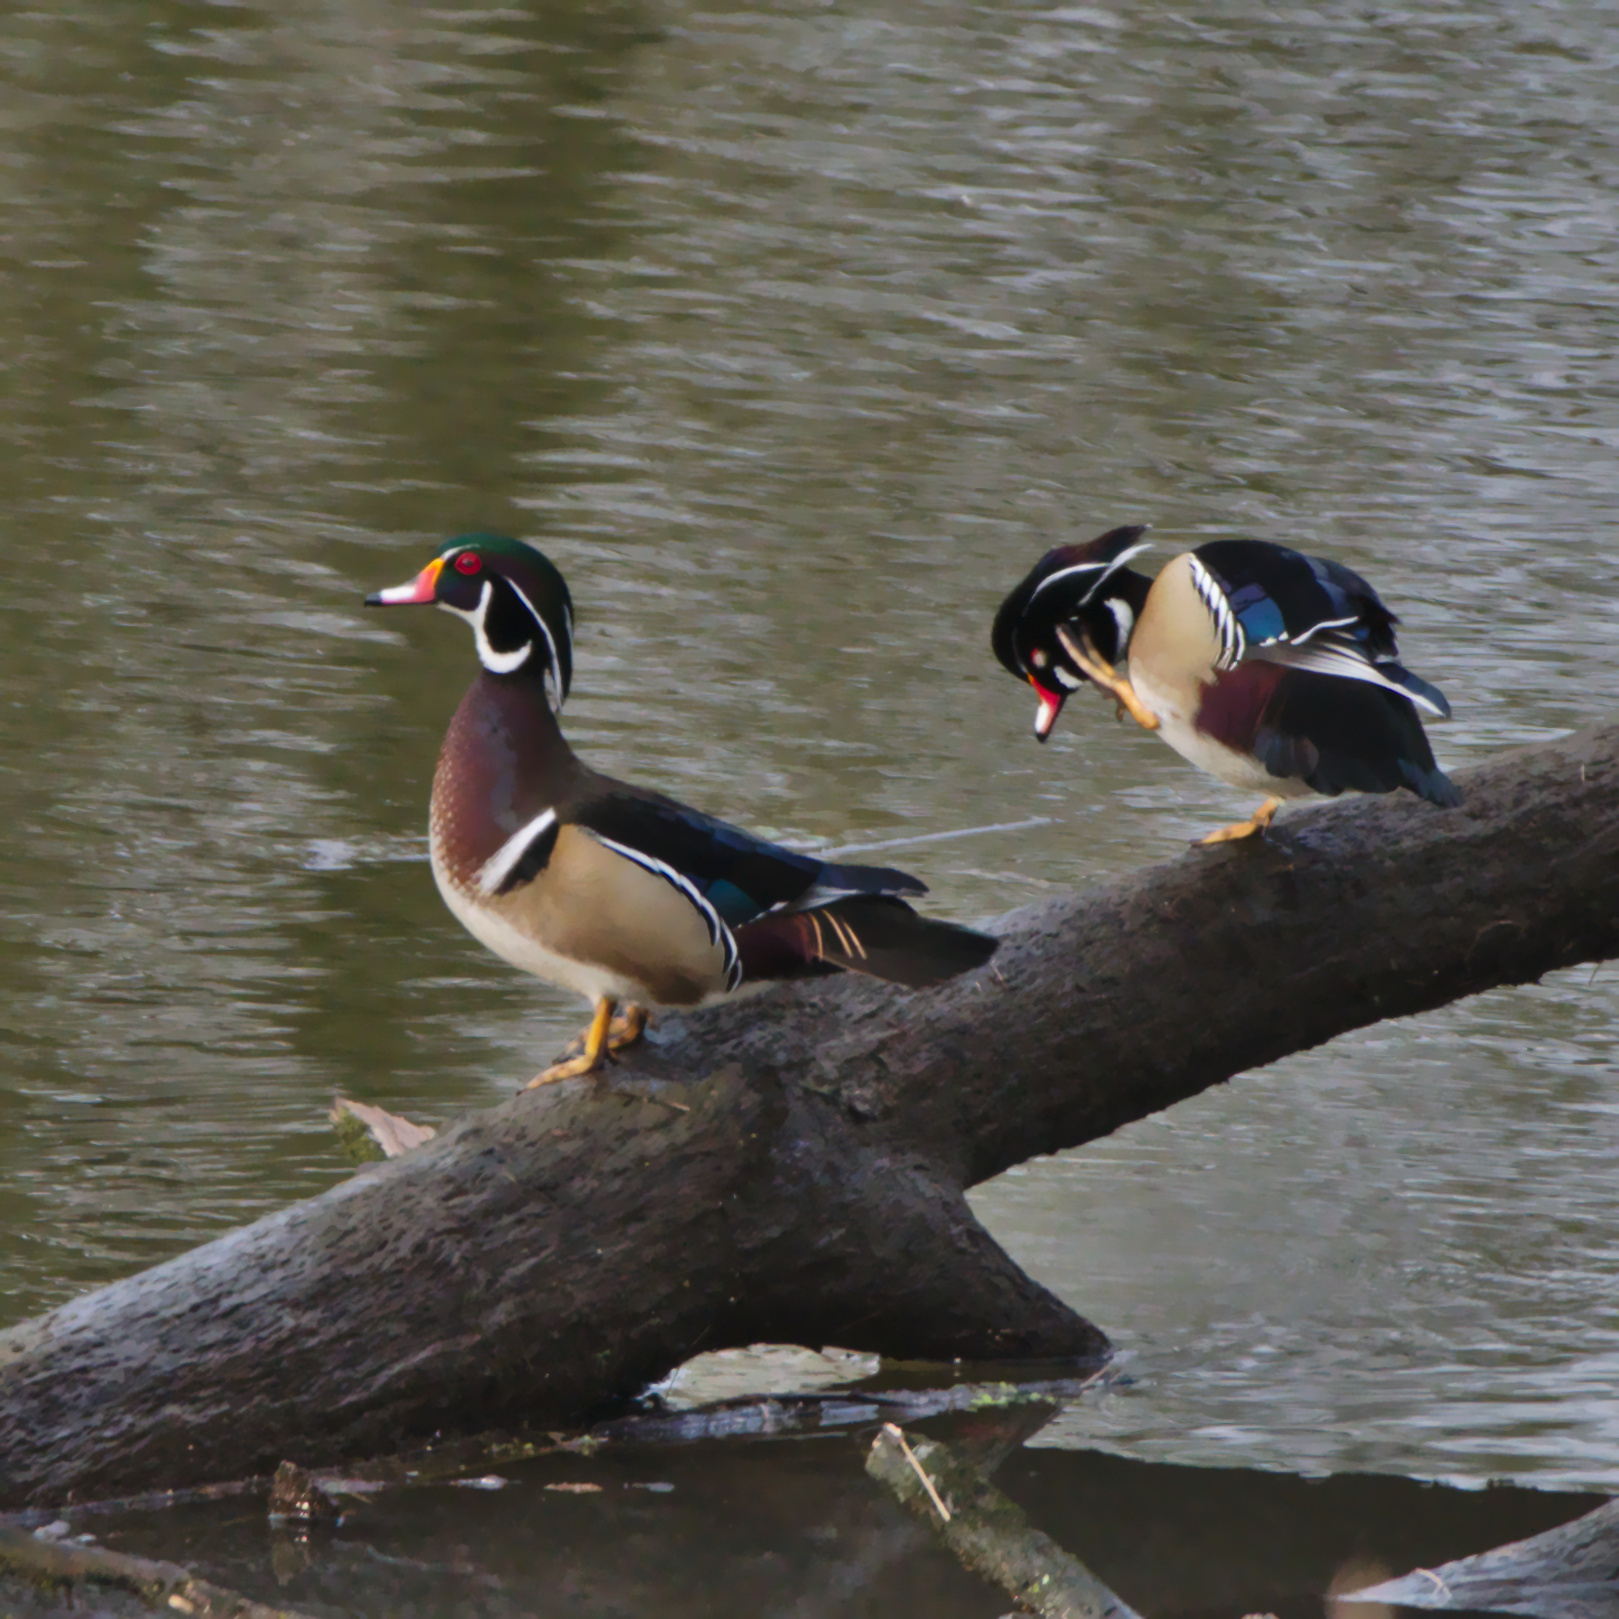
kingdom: Animalia
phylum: Chordata
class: Aves
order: Anseriformes
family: Anatidae
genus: Aix
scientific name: Aix sponsa
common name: Wood duck
